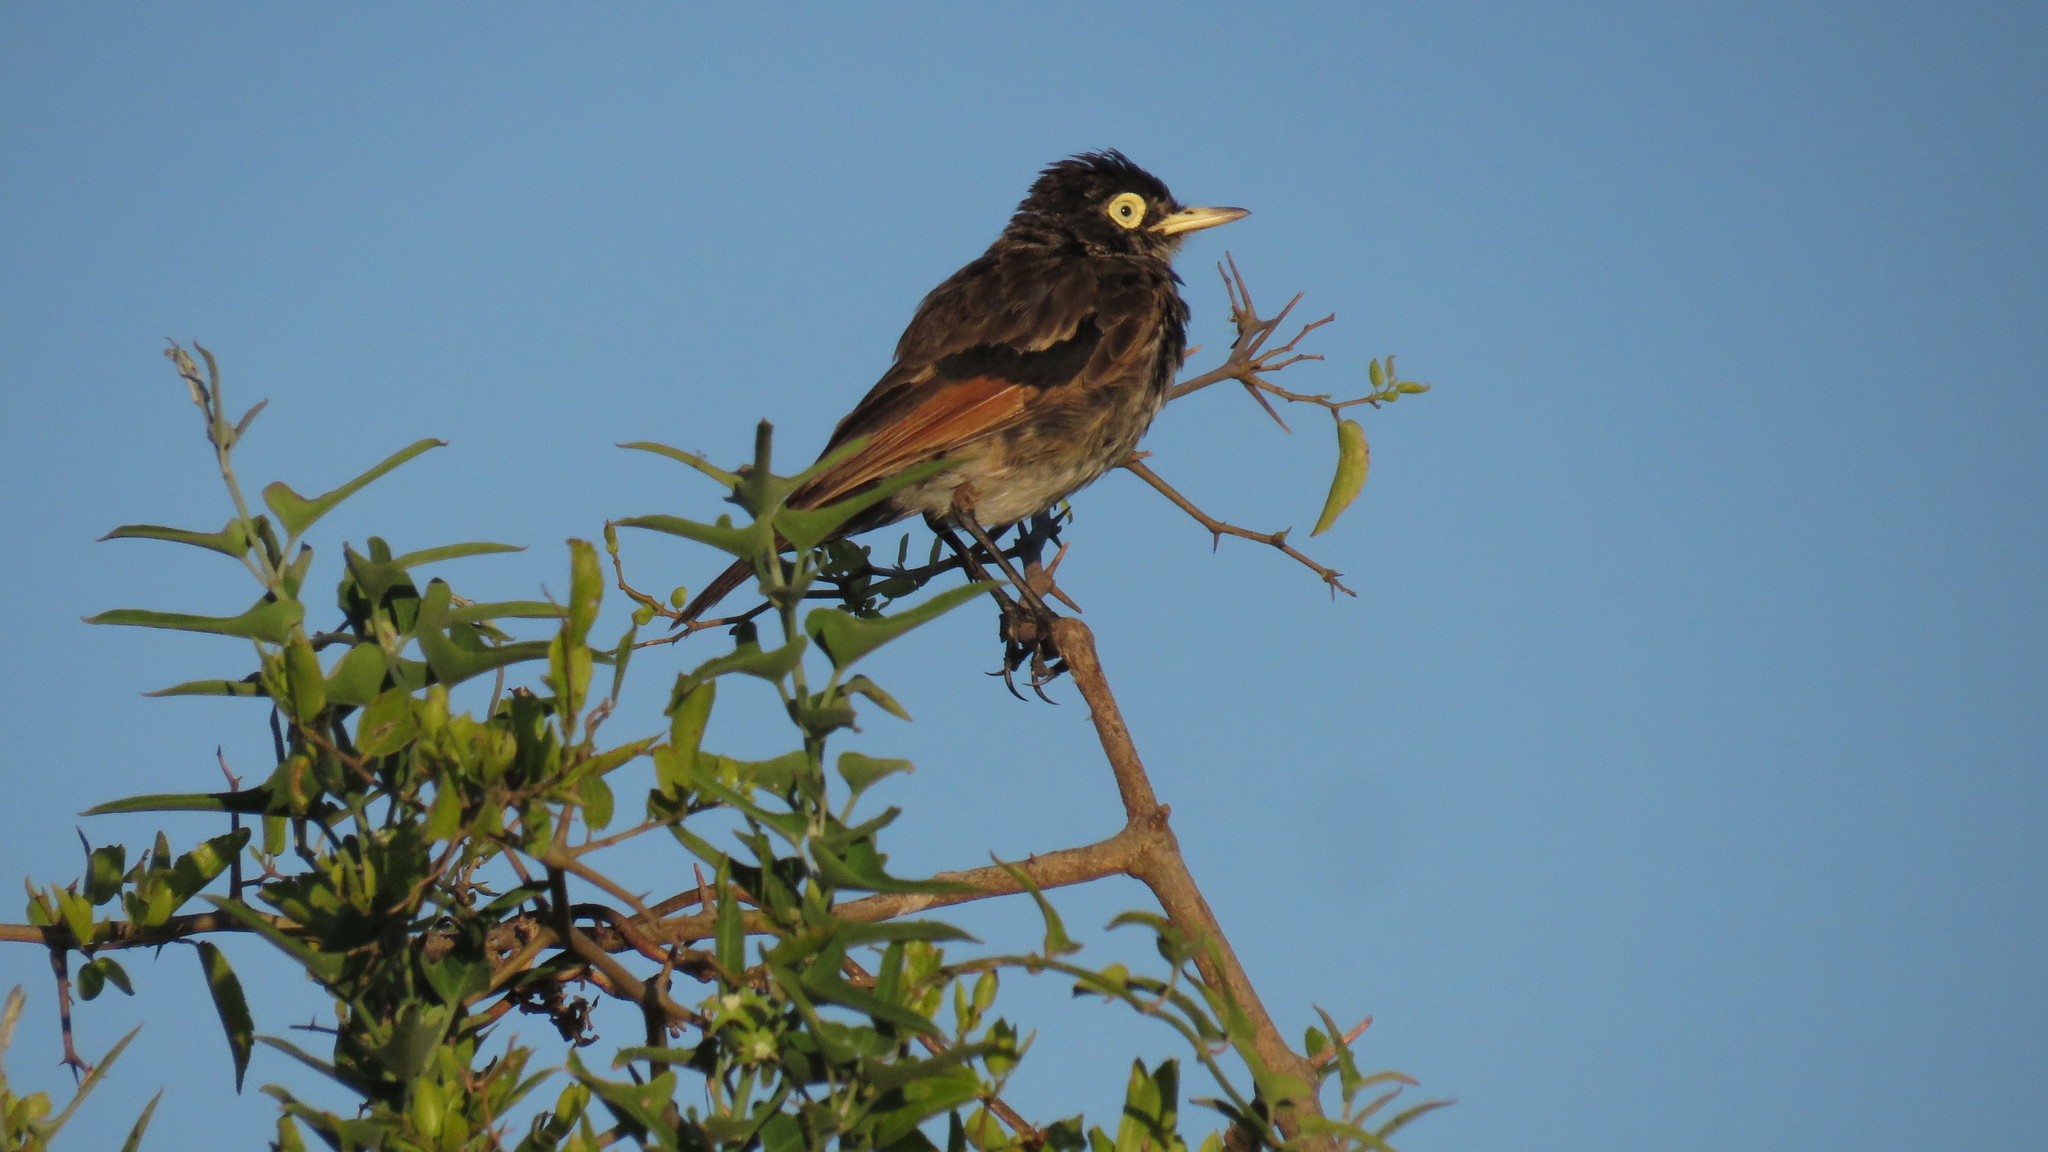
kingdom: Animalia
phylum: Chordata
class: Aves
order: Passeriformes
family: Tyrannidae
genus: Hymenops
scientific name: Hymenops perspicillatus
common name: Spectacled tyrant
